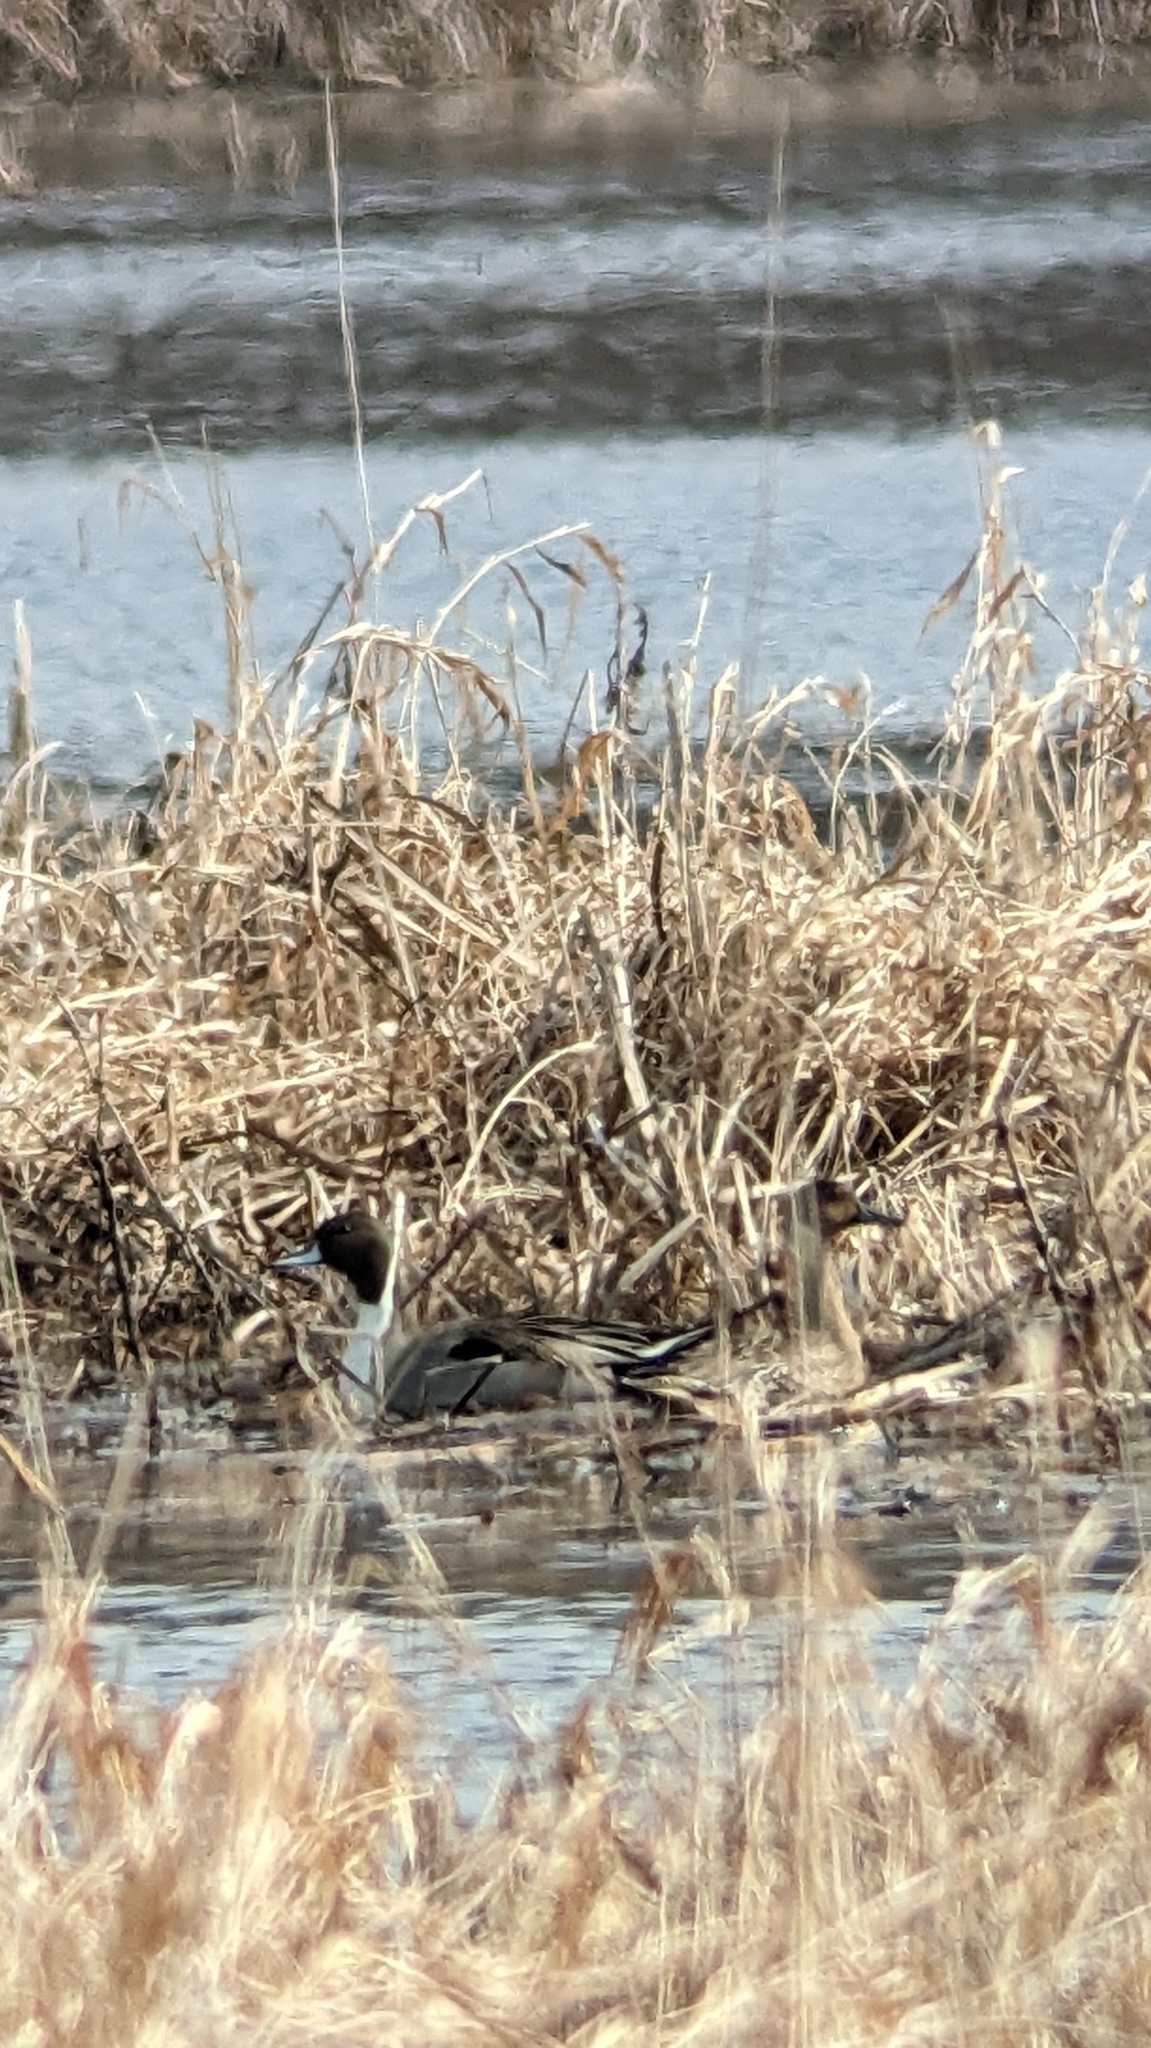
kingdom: Animalia
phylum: Chordata
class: Aves
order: Anseriformes
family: Anatidae
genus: Anas
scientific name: Anas acuta
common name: Northern pintail
